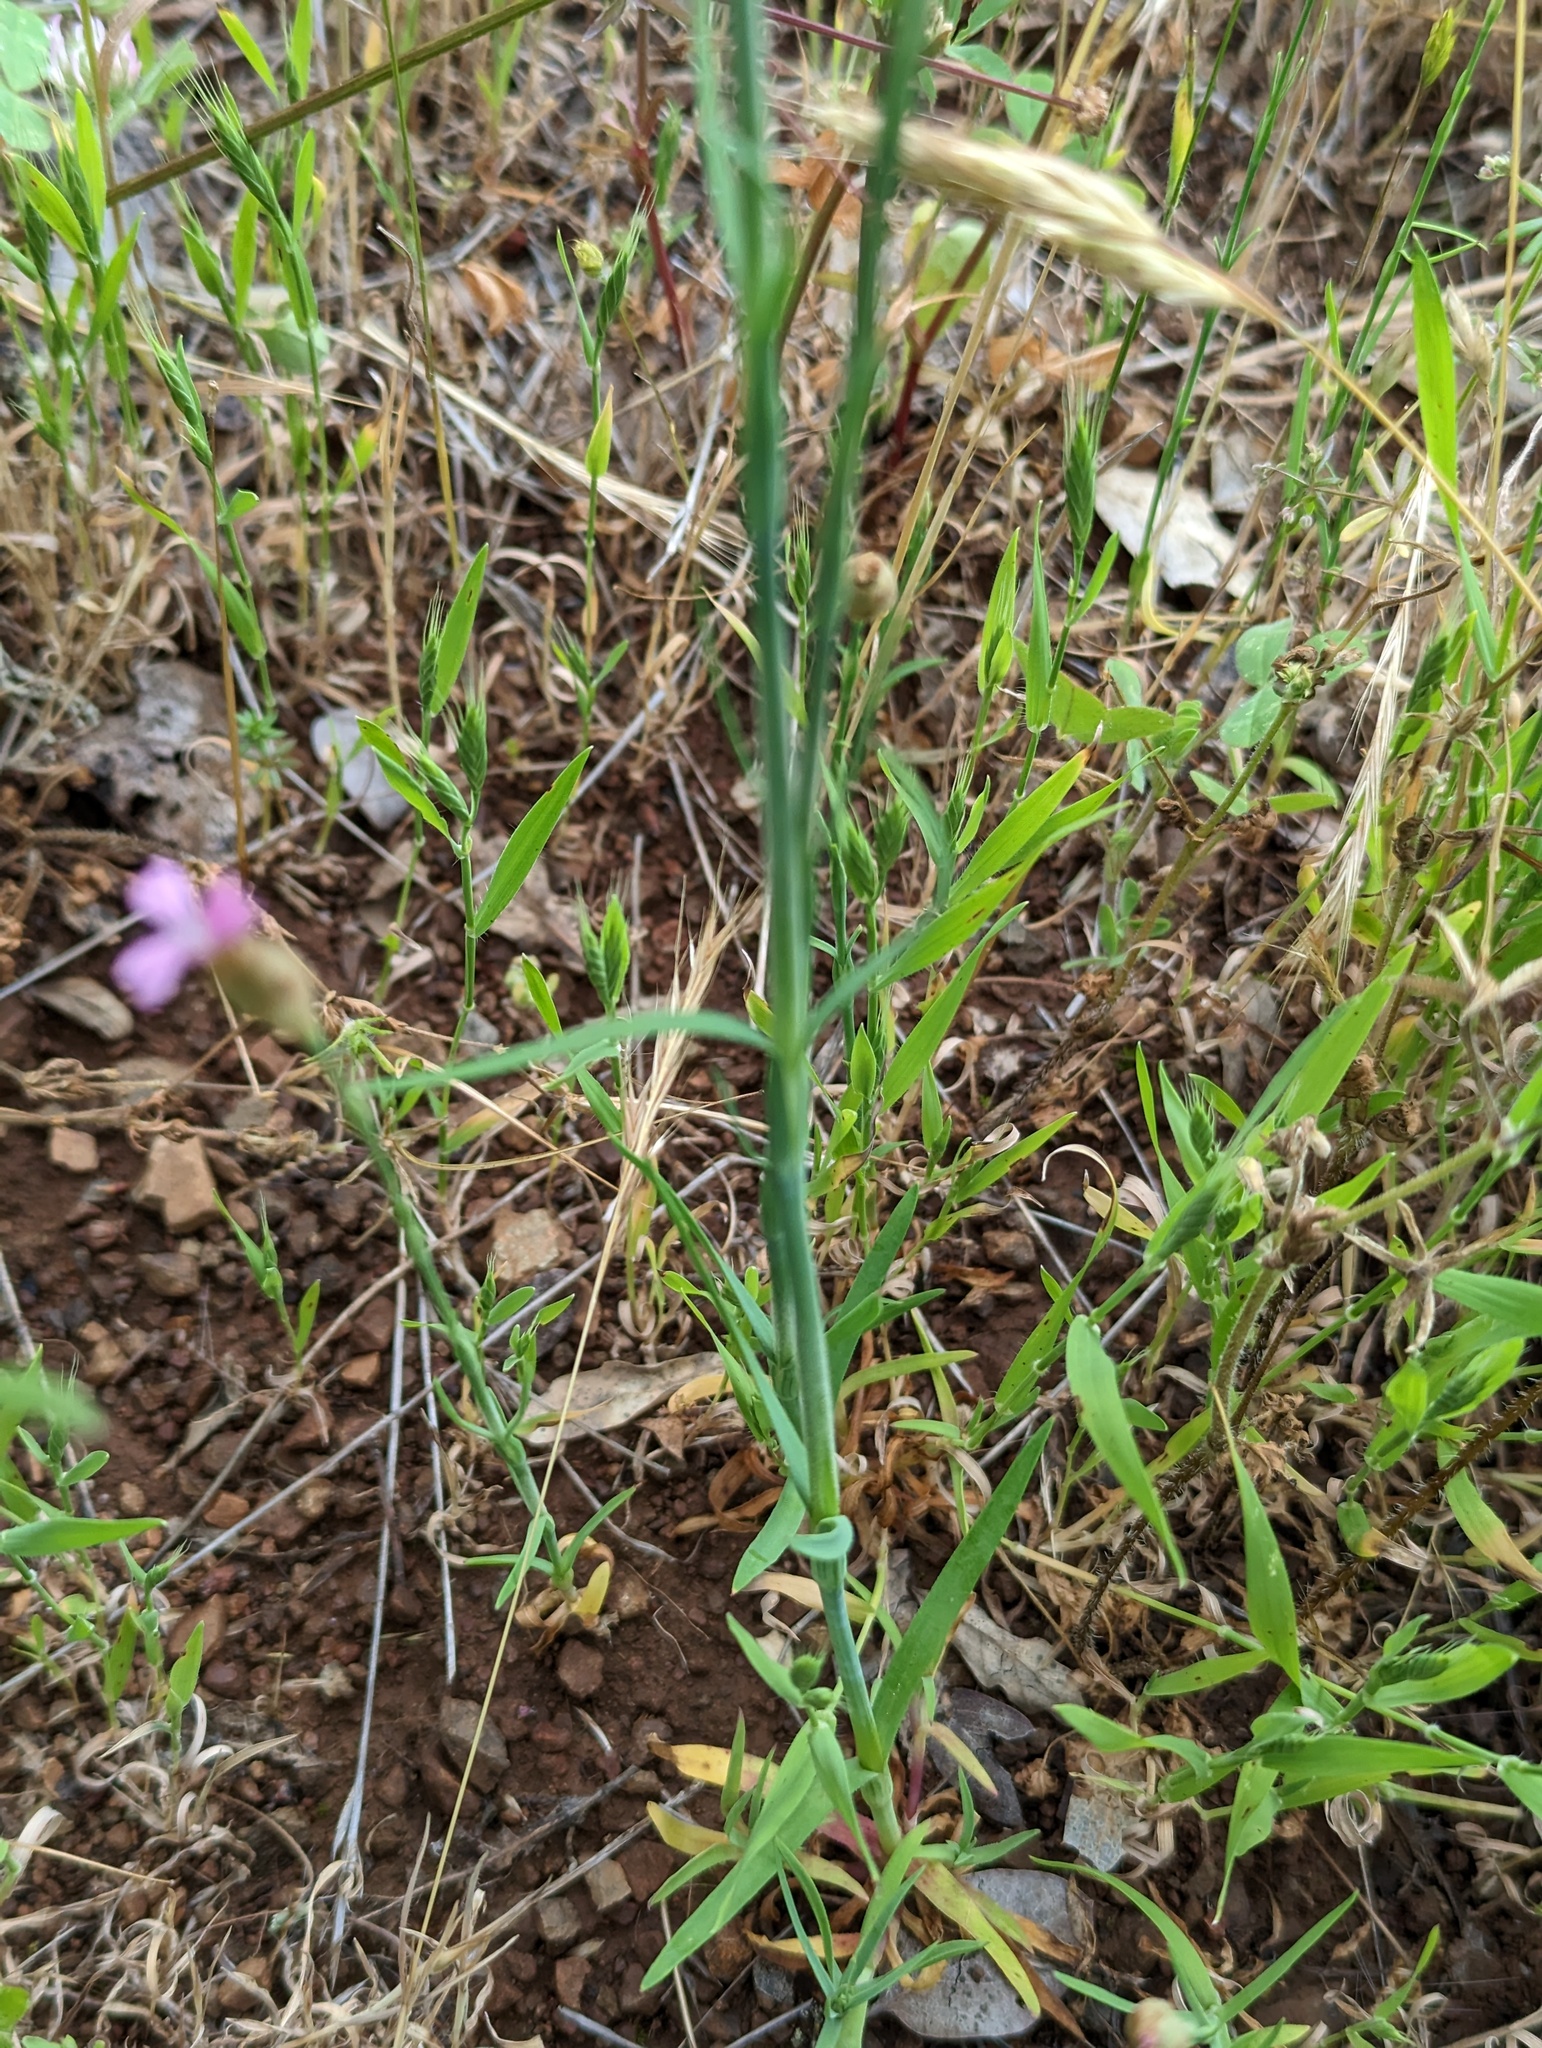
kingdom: Plantae
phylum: Tracheophyta
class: Magnoliopsida
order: Caryophyllales
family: Caryophyllaceae
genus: Petrorhagia
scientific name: Petrorhagia dubia
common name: Hairypink
